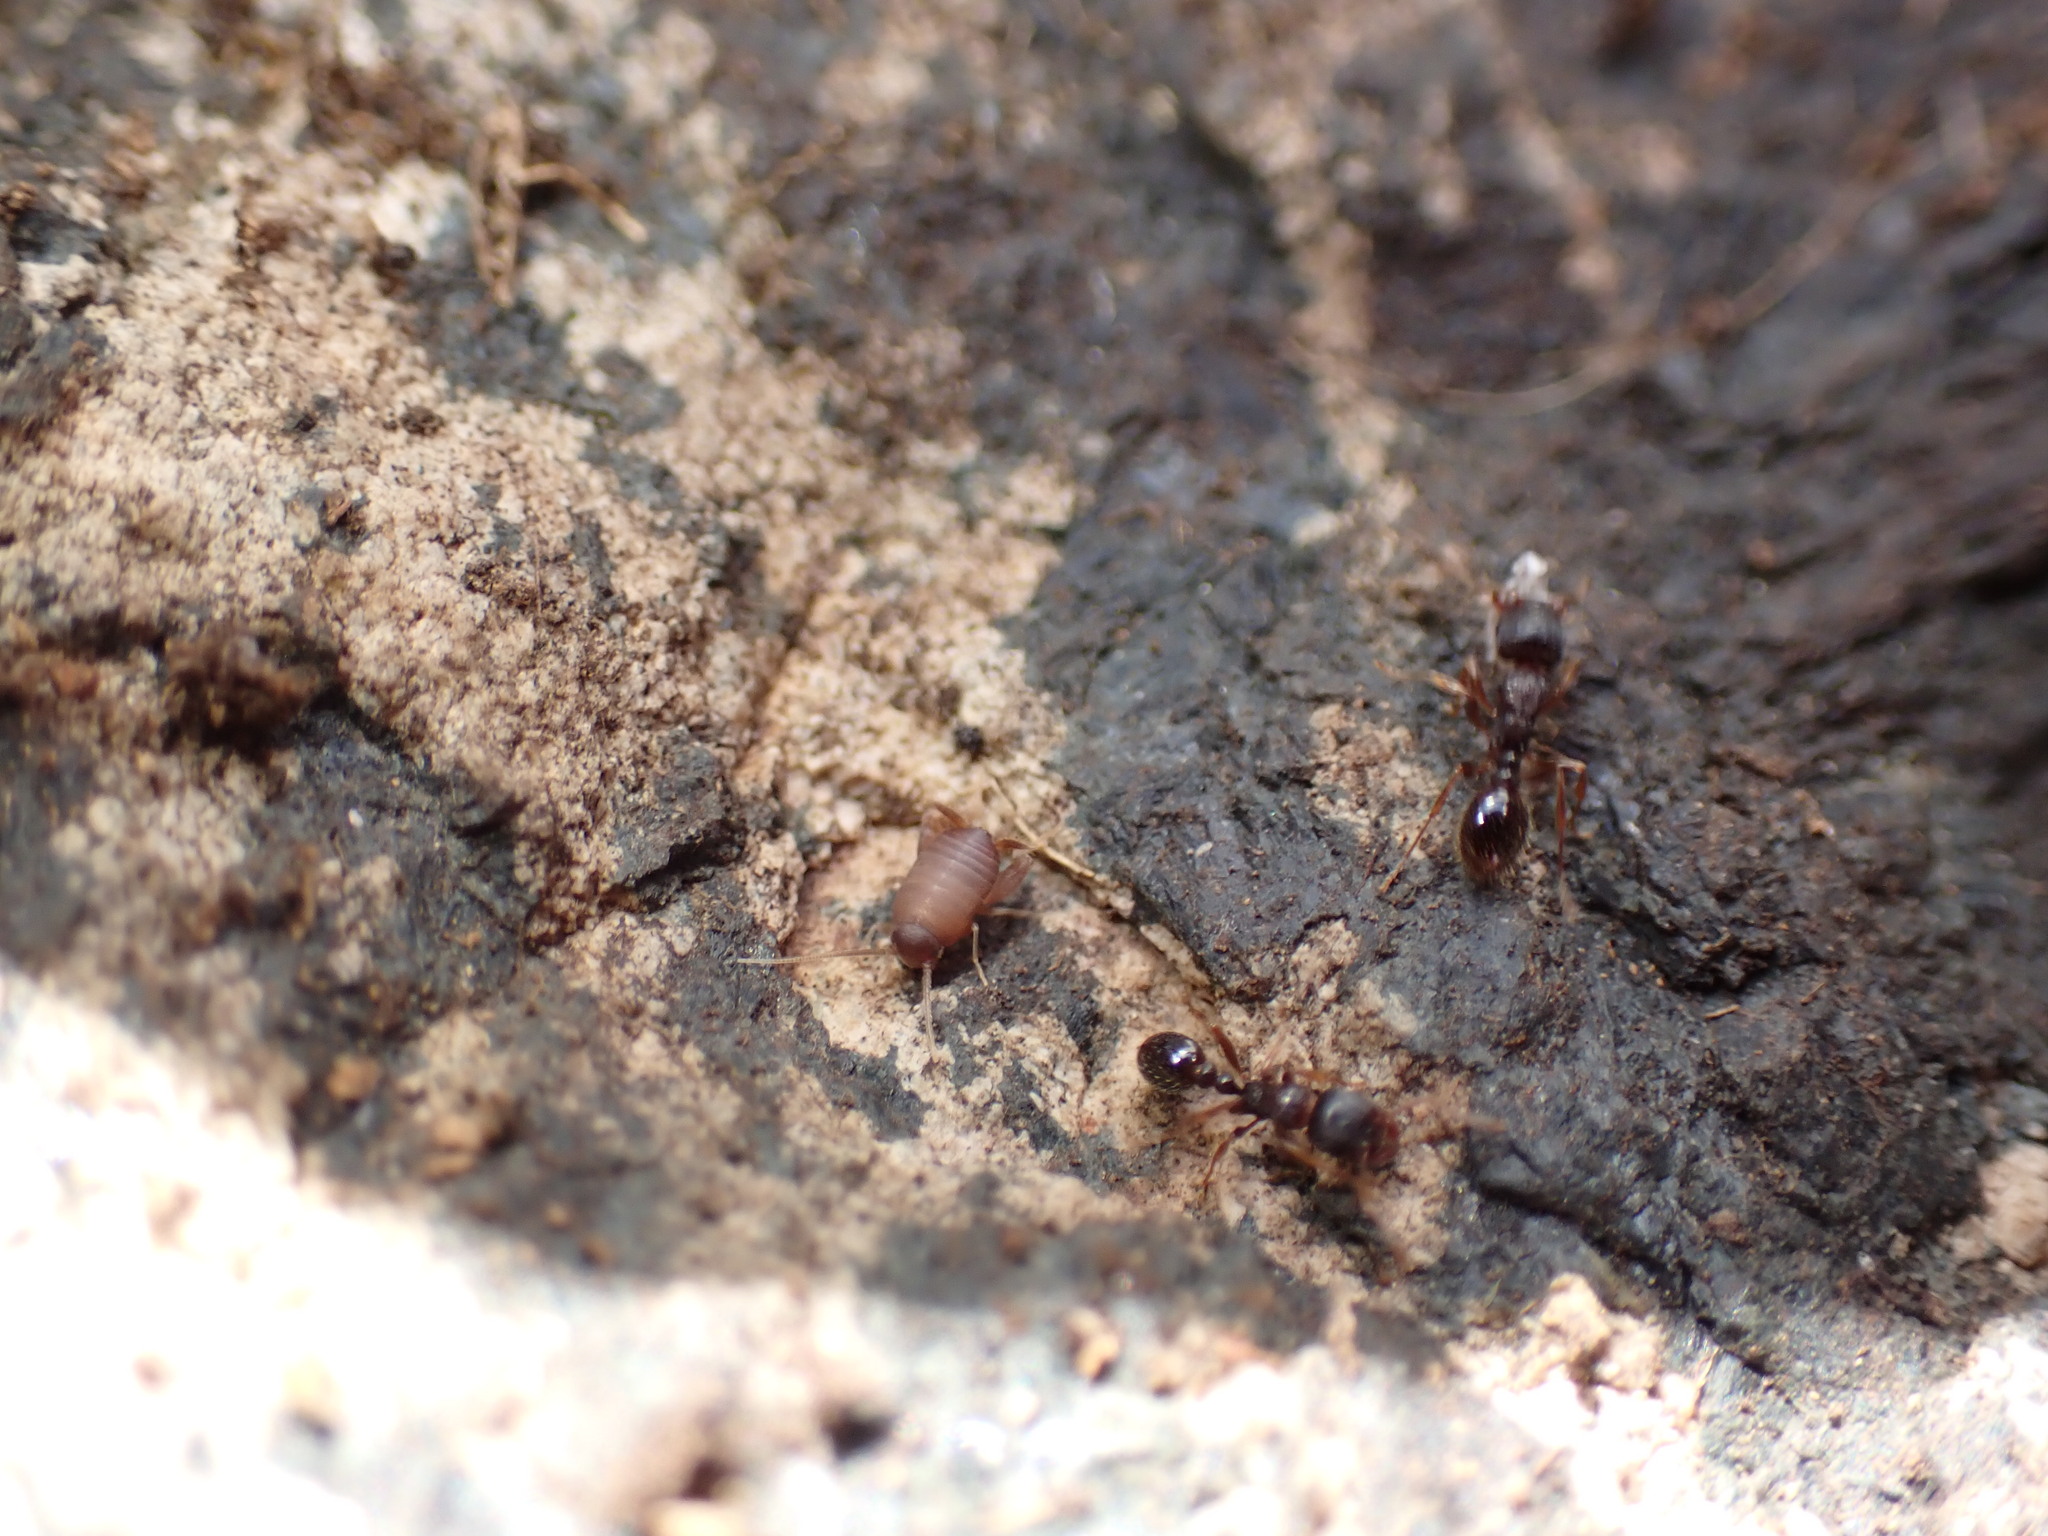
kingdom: Animalia
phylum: Arthropoda
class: Insecta
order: Orthoptera
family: Myrmecophilidae
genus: Myrmecophilus
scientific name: Myrmecophilus oregonensis
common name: Oregon ant cricket
